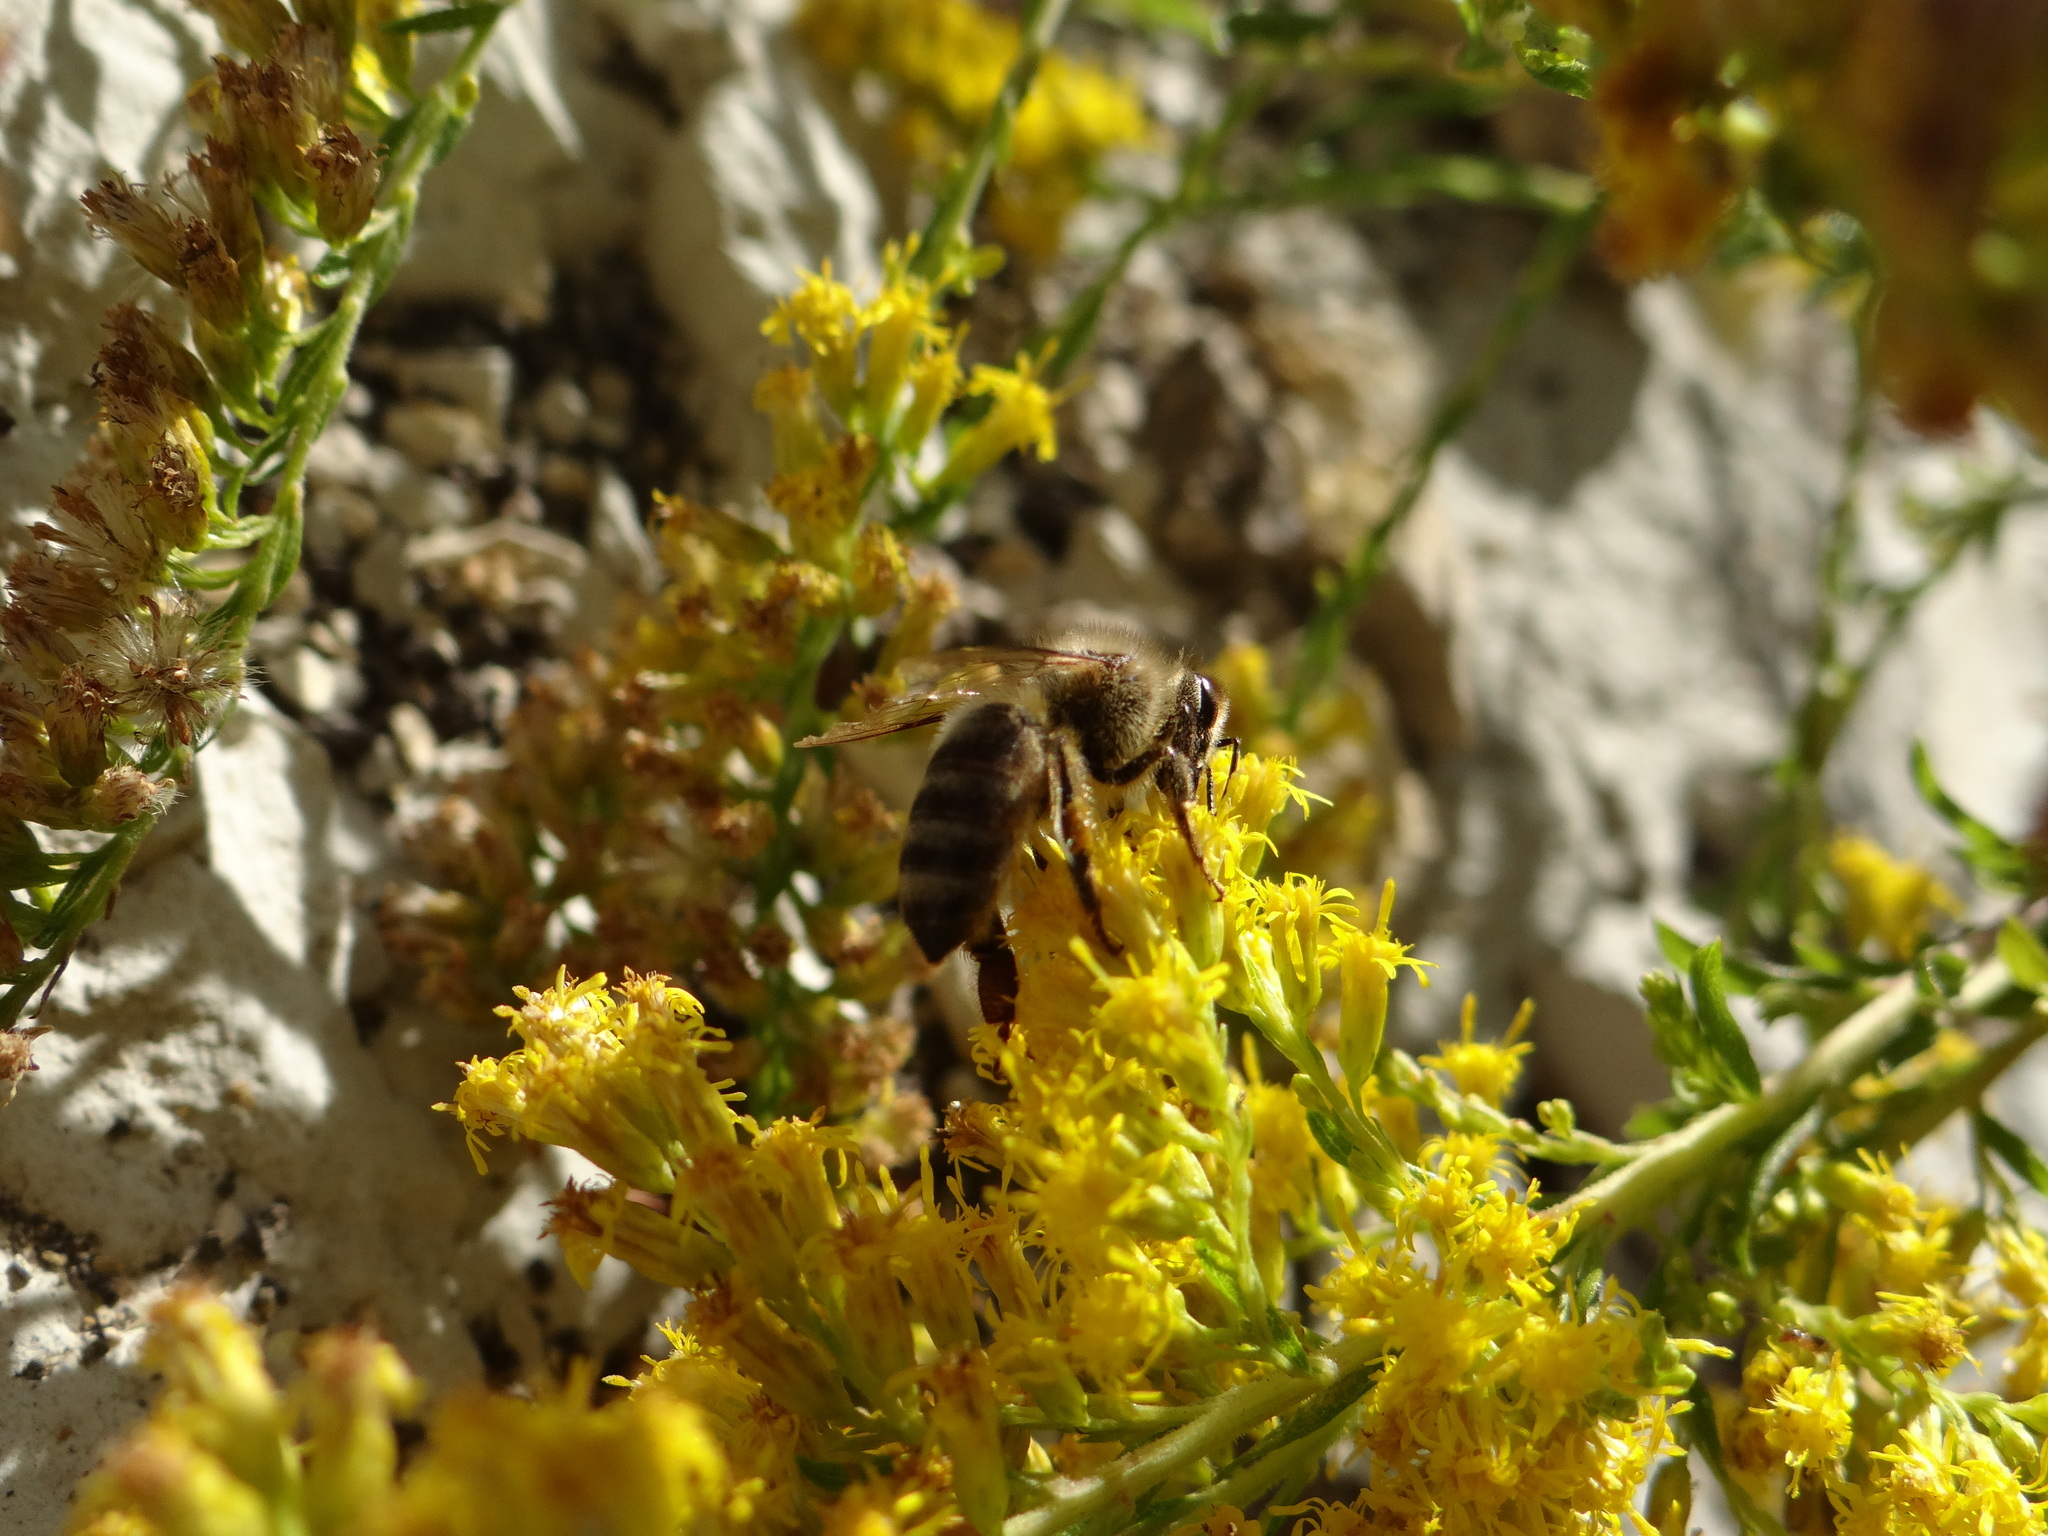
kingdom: Animalia
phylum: Arthropoda
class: Insecta
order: Hymenoptera
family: Apidae
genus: Apis
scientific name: Apis mellifera
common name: Honey bee
